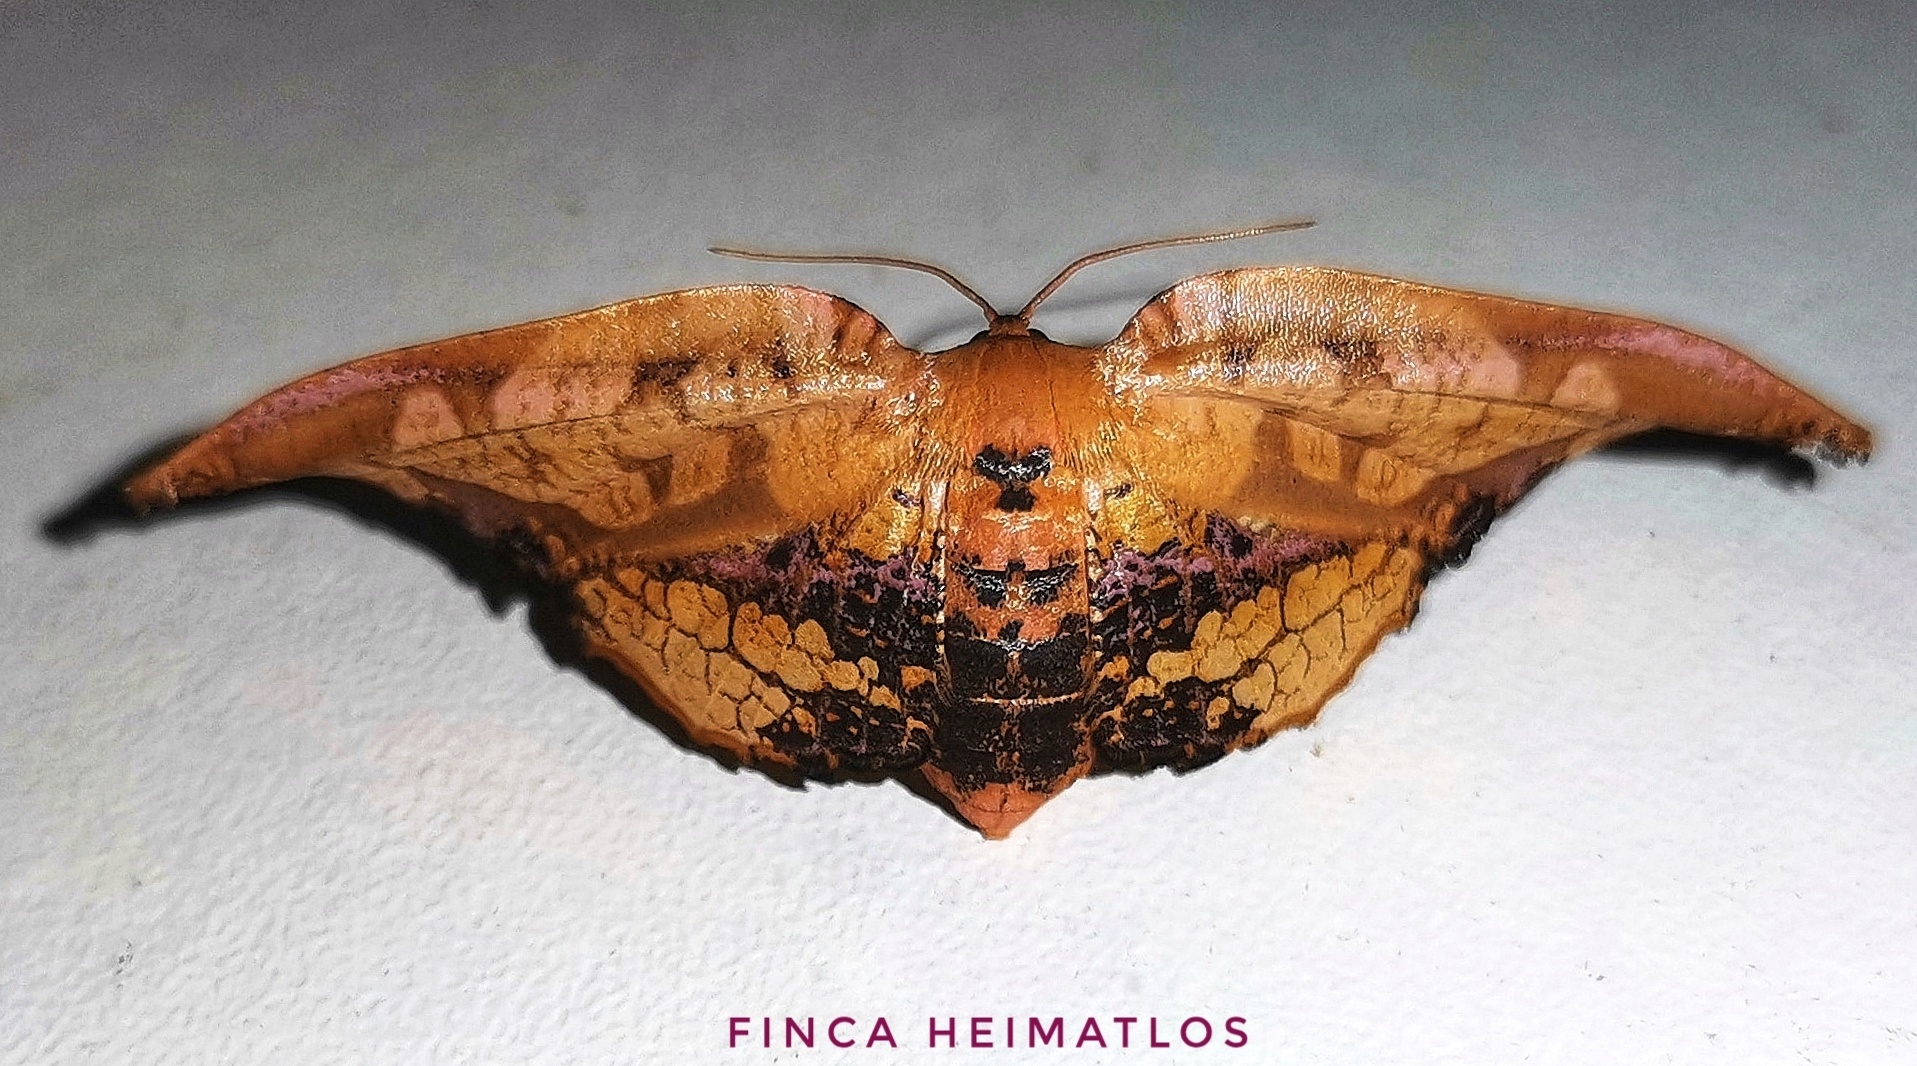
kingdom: Animalia
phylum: Arthropoda
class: Insecta
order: Lepidoptera
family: Thyrididae
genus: Draconia
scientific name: Draconia stenoptila
